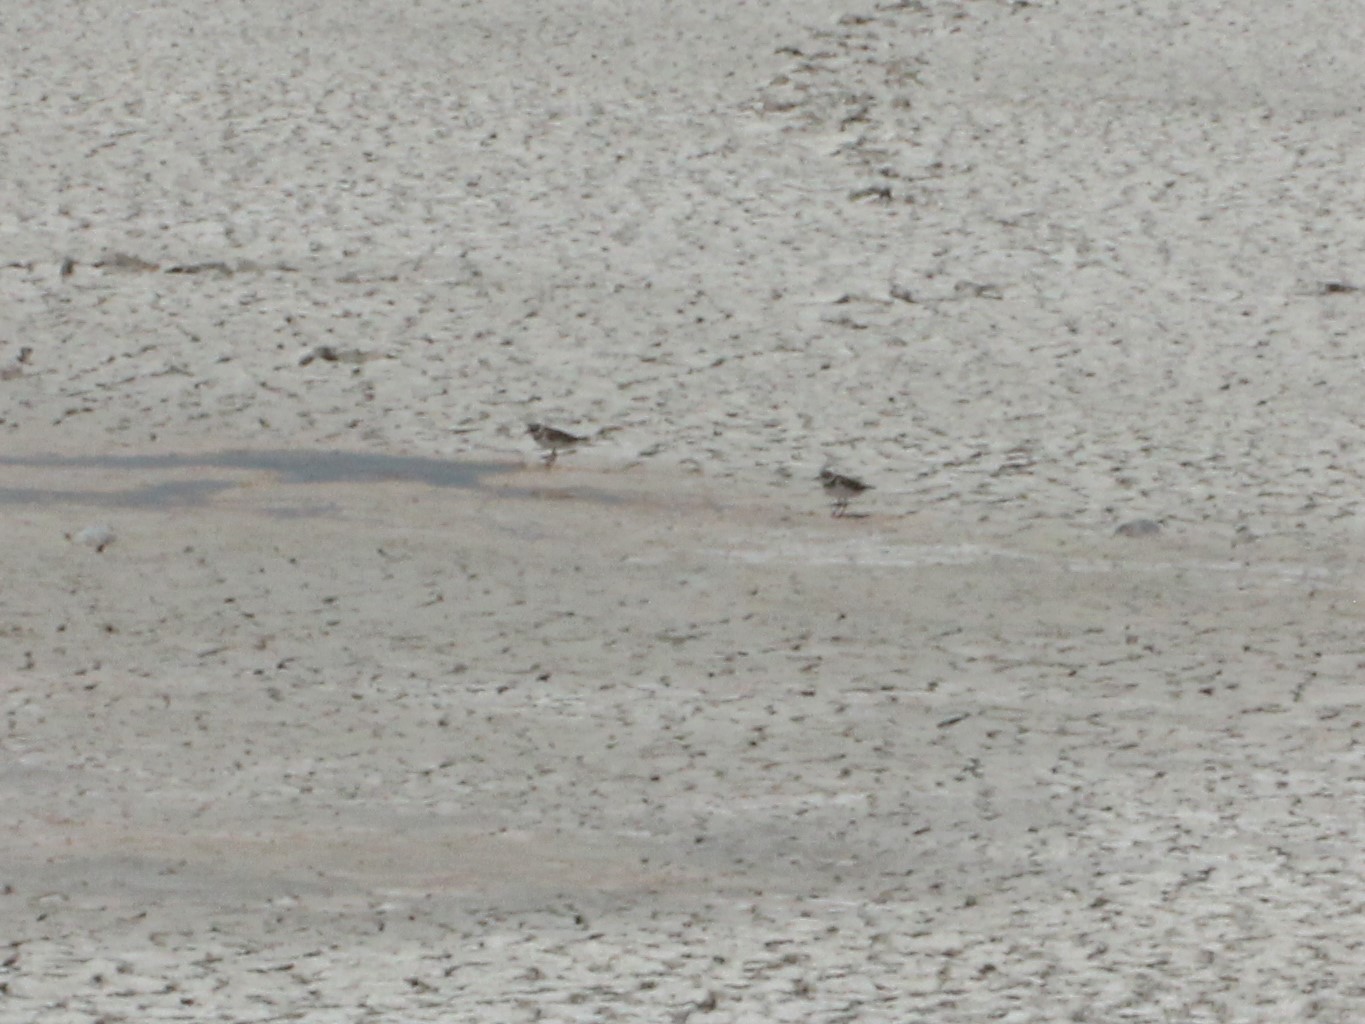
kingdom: Animalia
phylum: Chordata
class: Aves
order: Charadriiformes
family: Charadriidae
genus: Charadrius
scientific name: Charadrius semipalmatus
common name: Semipalmated plover
